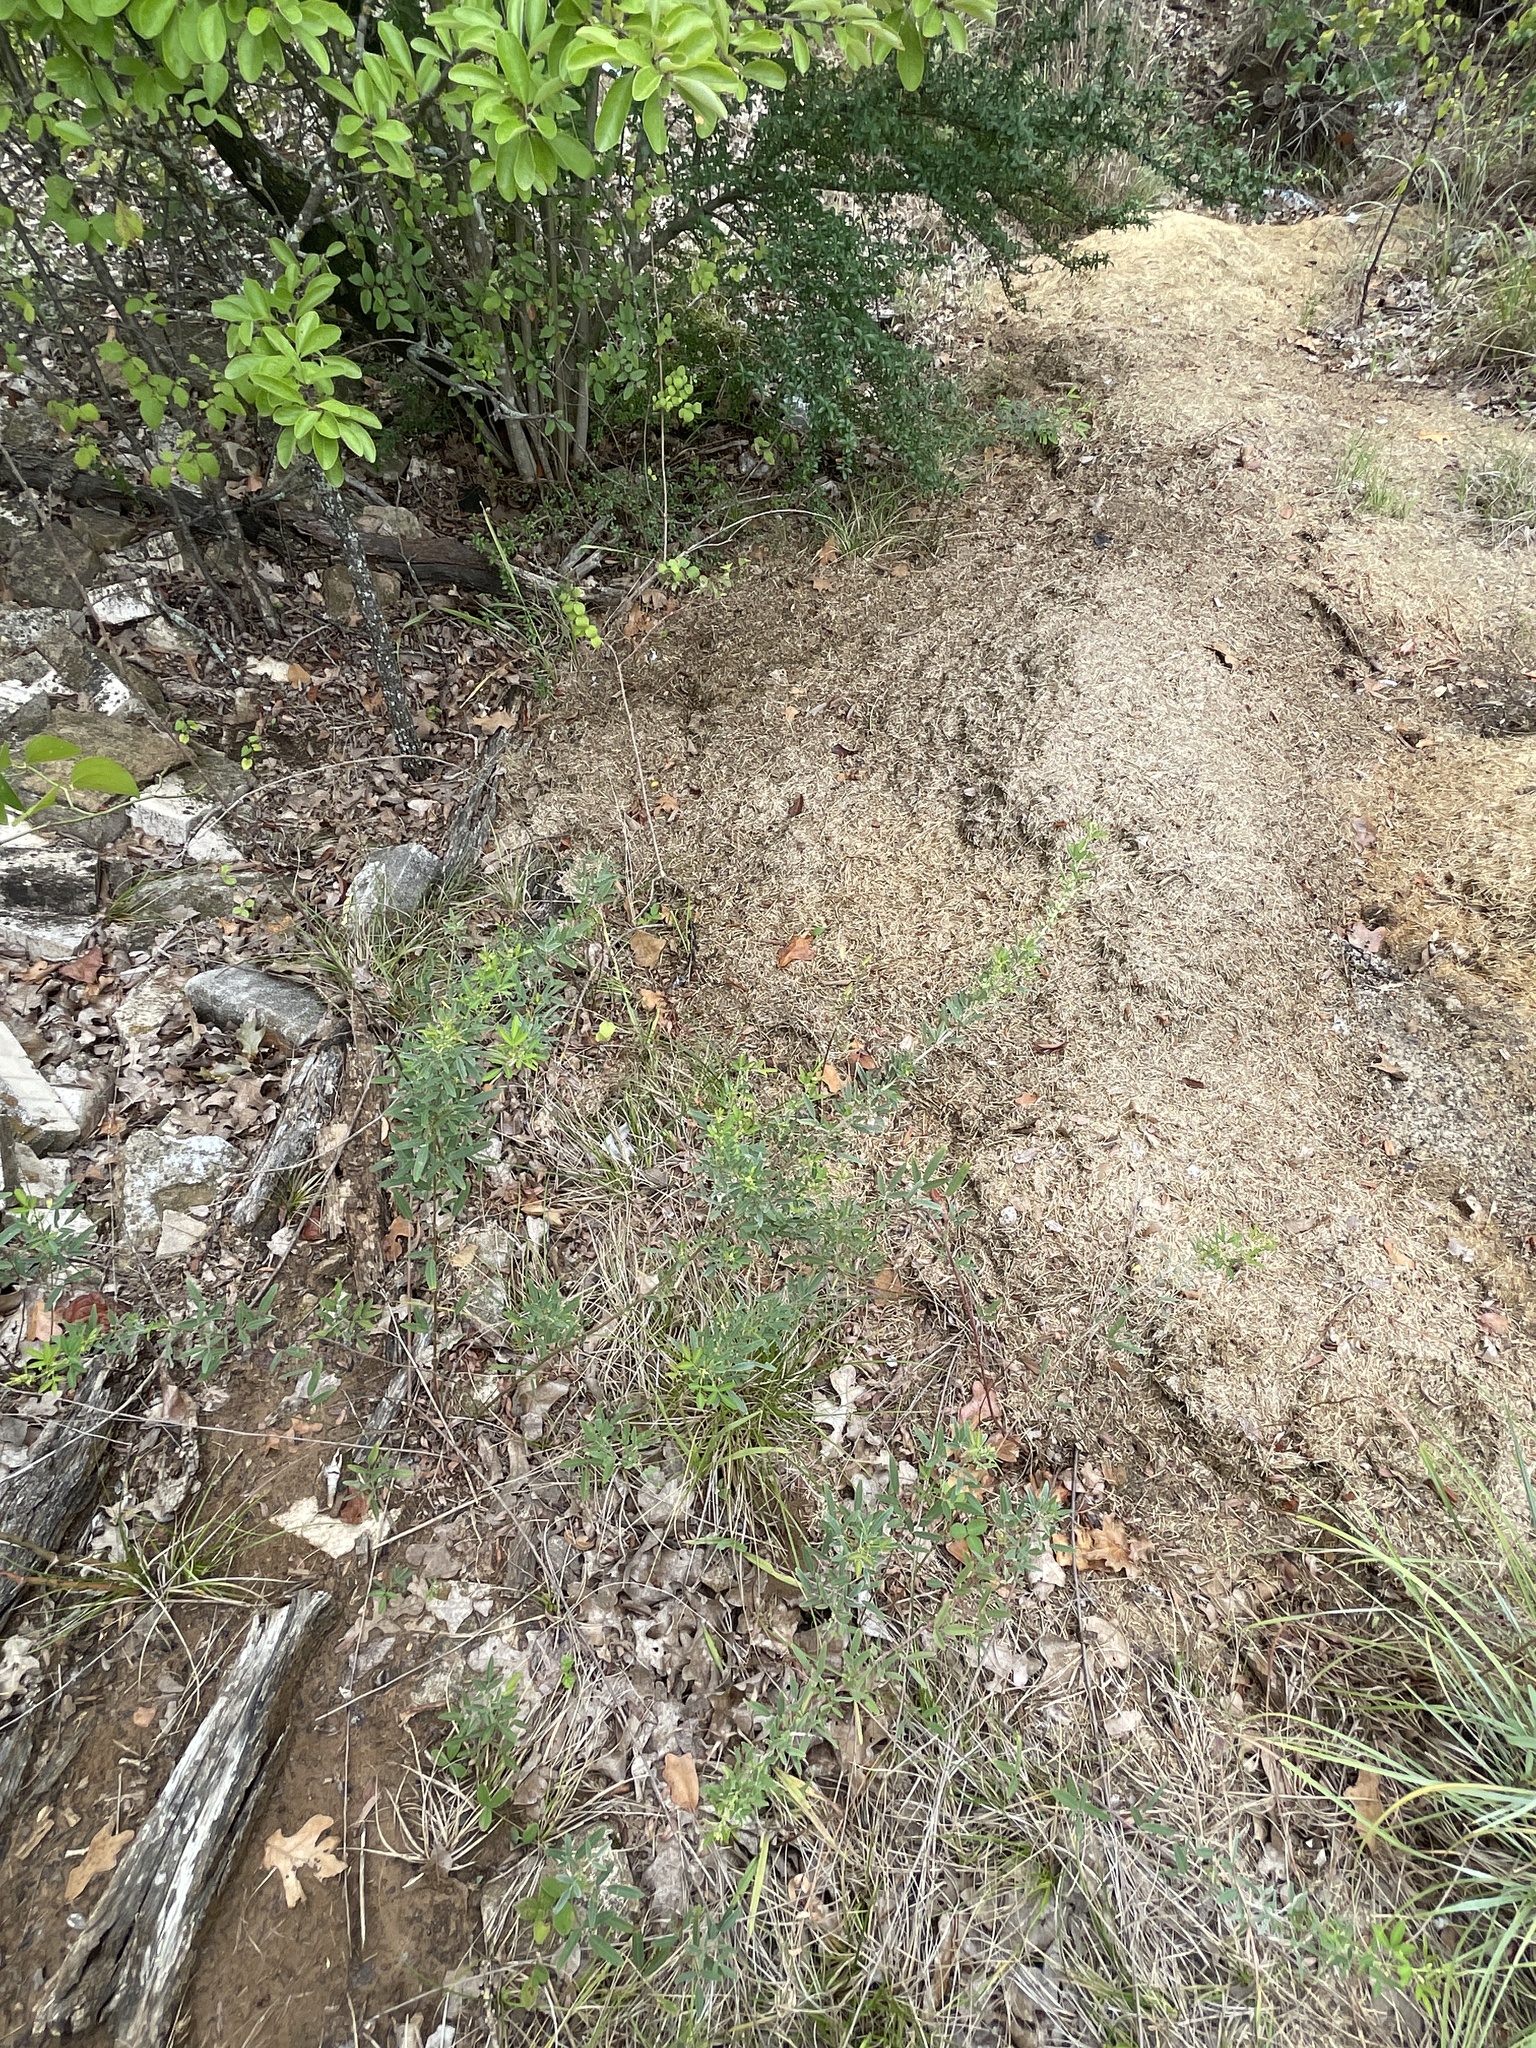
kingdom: Plantae
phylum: Tracheophyta
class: Magnoliopsida
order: Fabales
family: Fabaceae
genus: Lespedeza
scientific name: Lespedeza virginica
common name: Slender bush-clover
